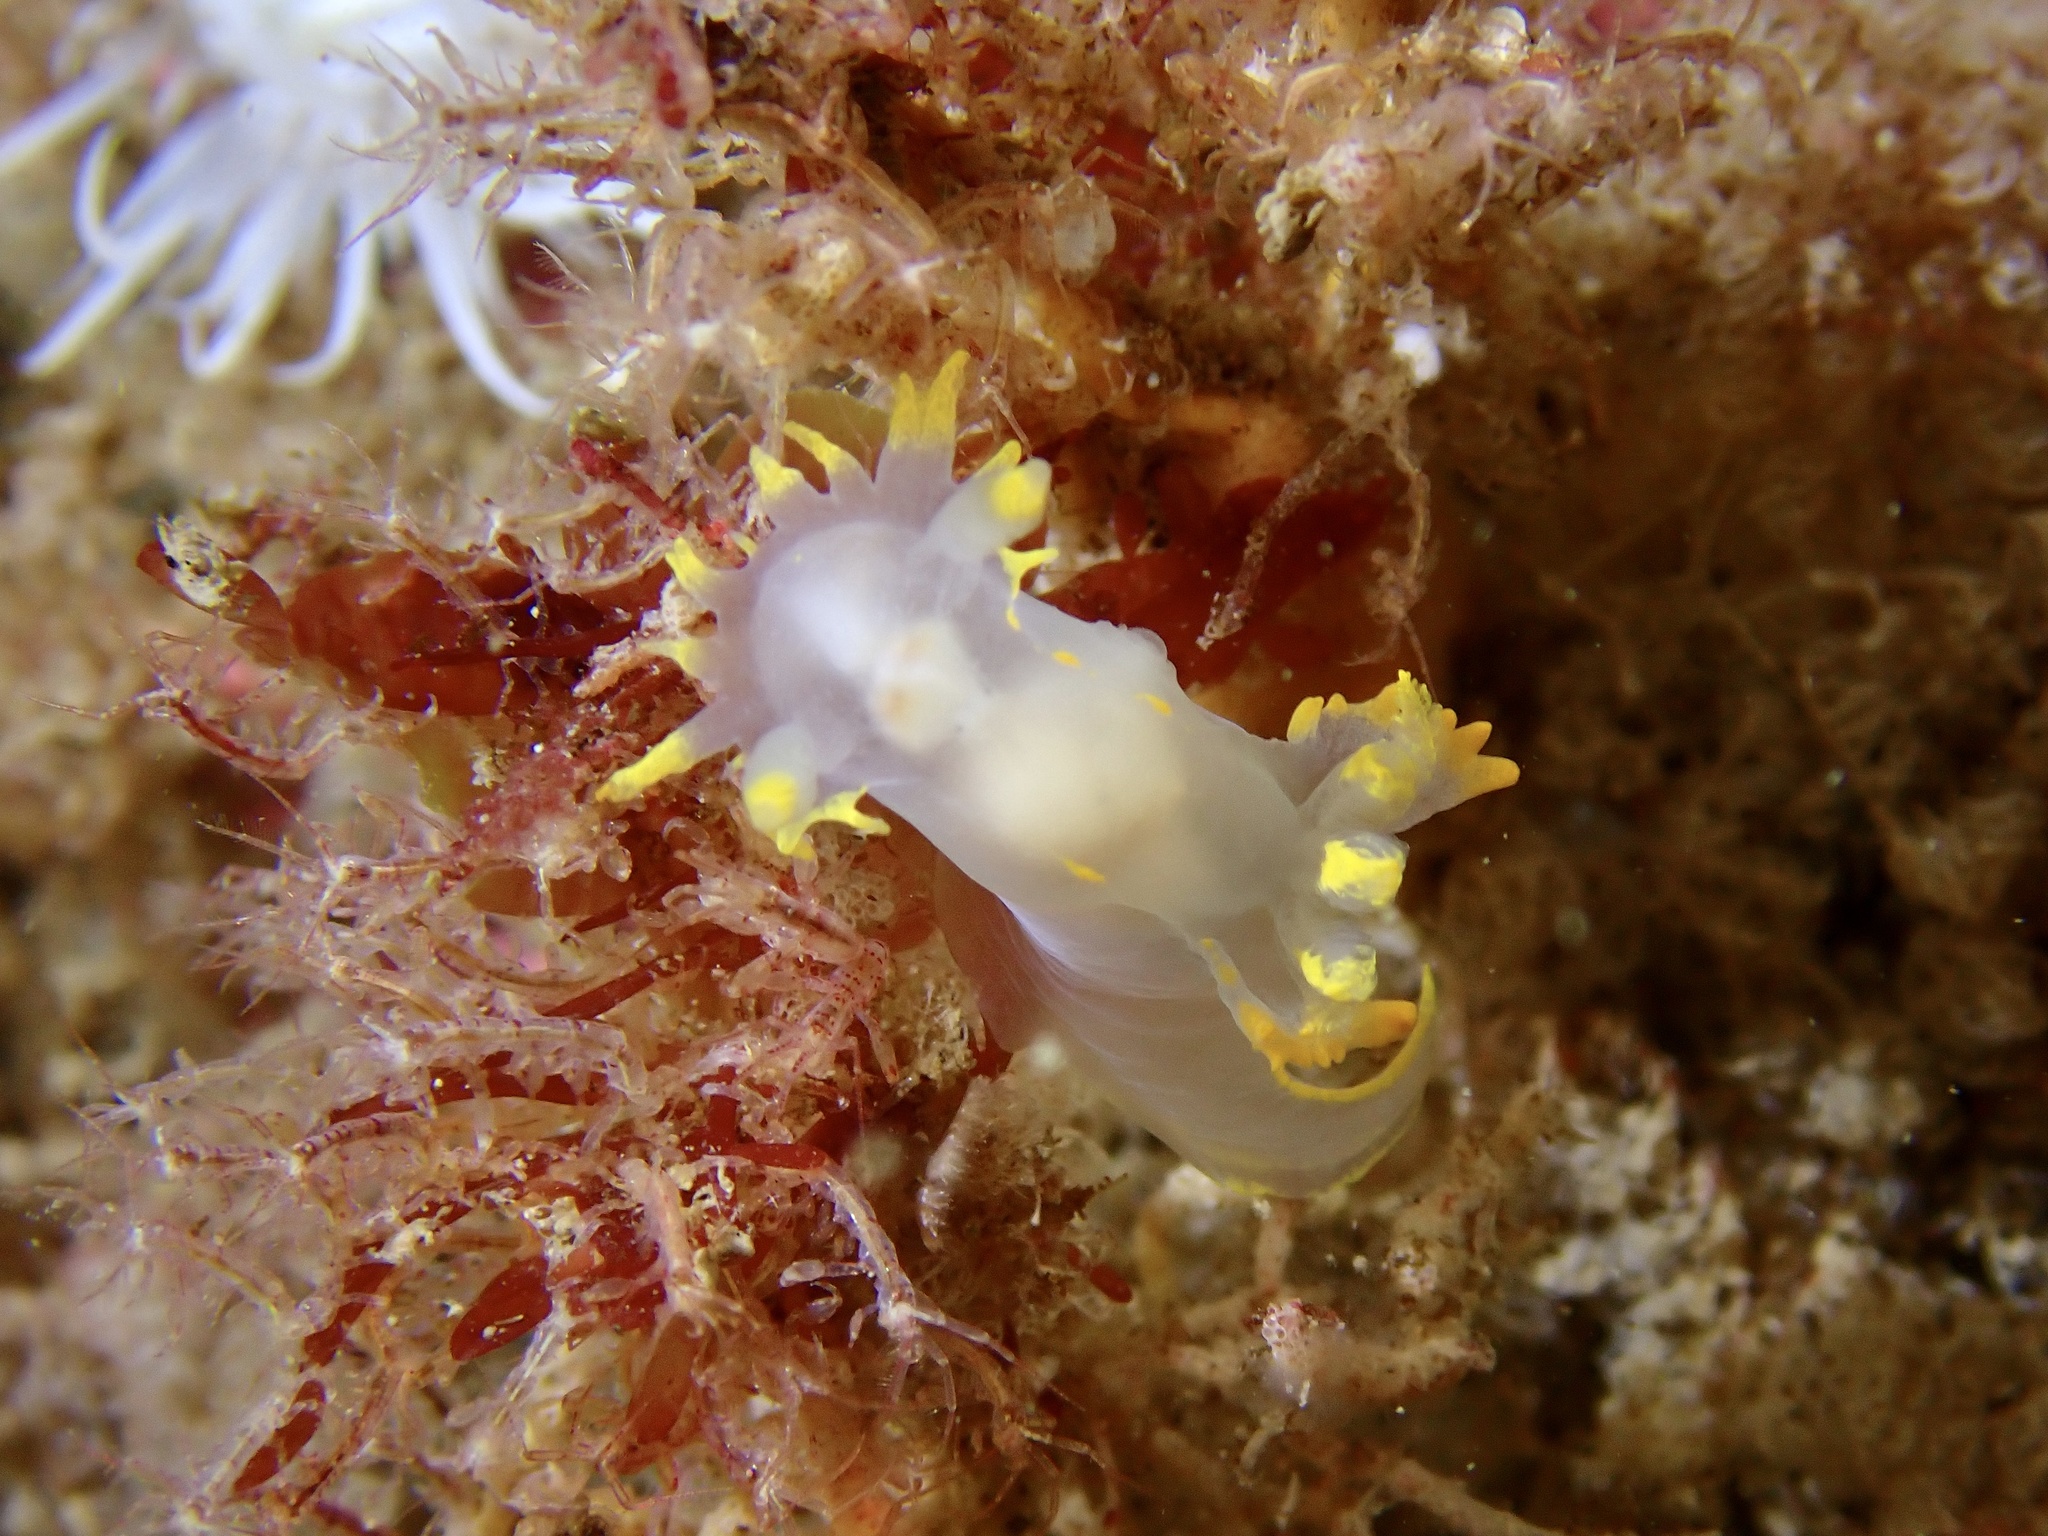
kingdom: Animalia
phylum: Mollusca
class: Gastropoda
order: Nudibranchia
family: Polyceridae
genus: Polycera
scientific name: Polycera faeroensis
